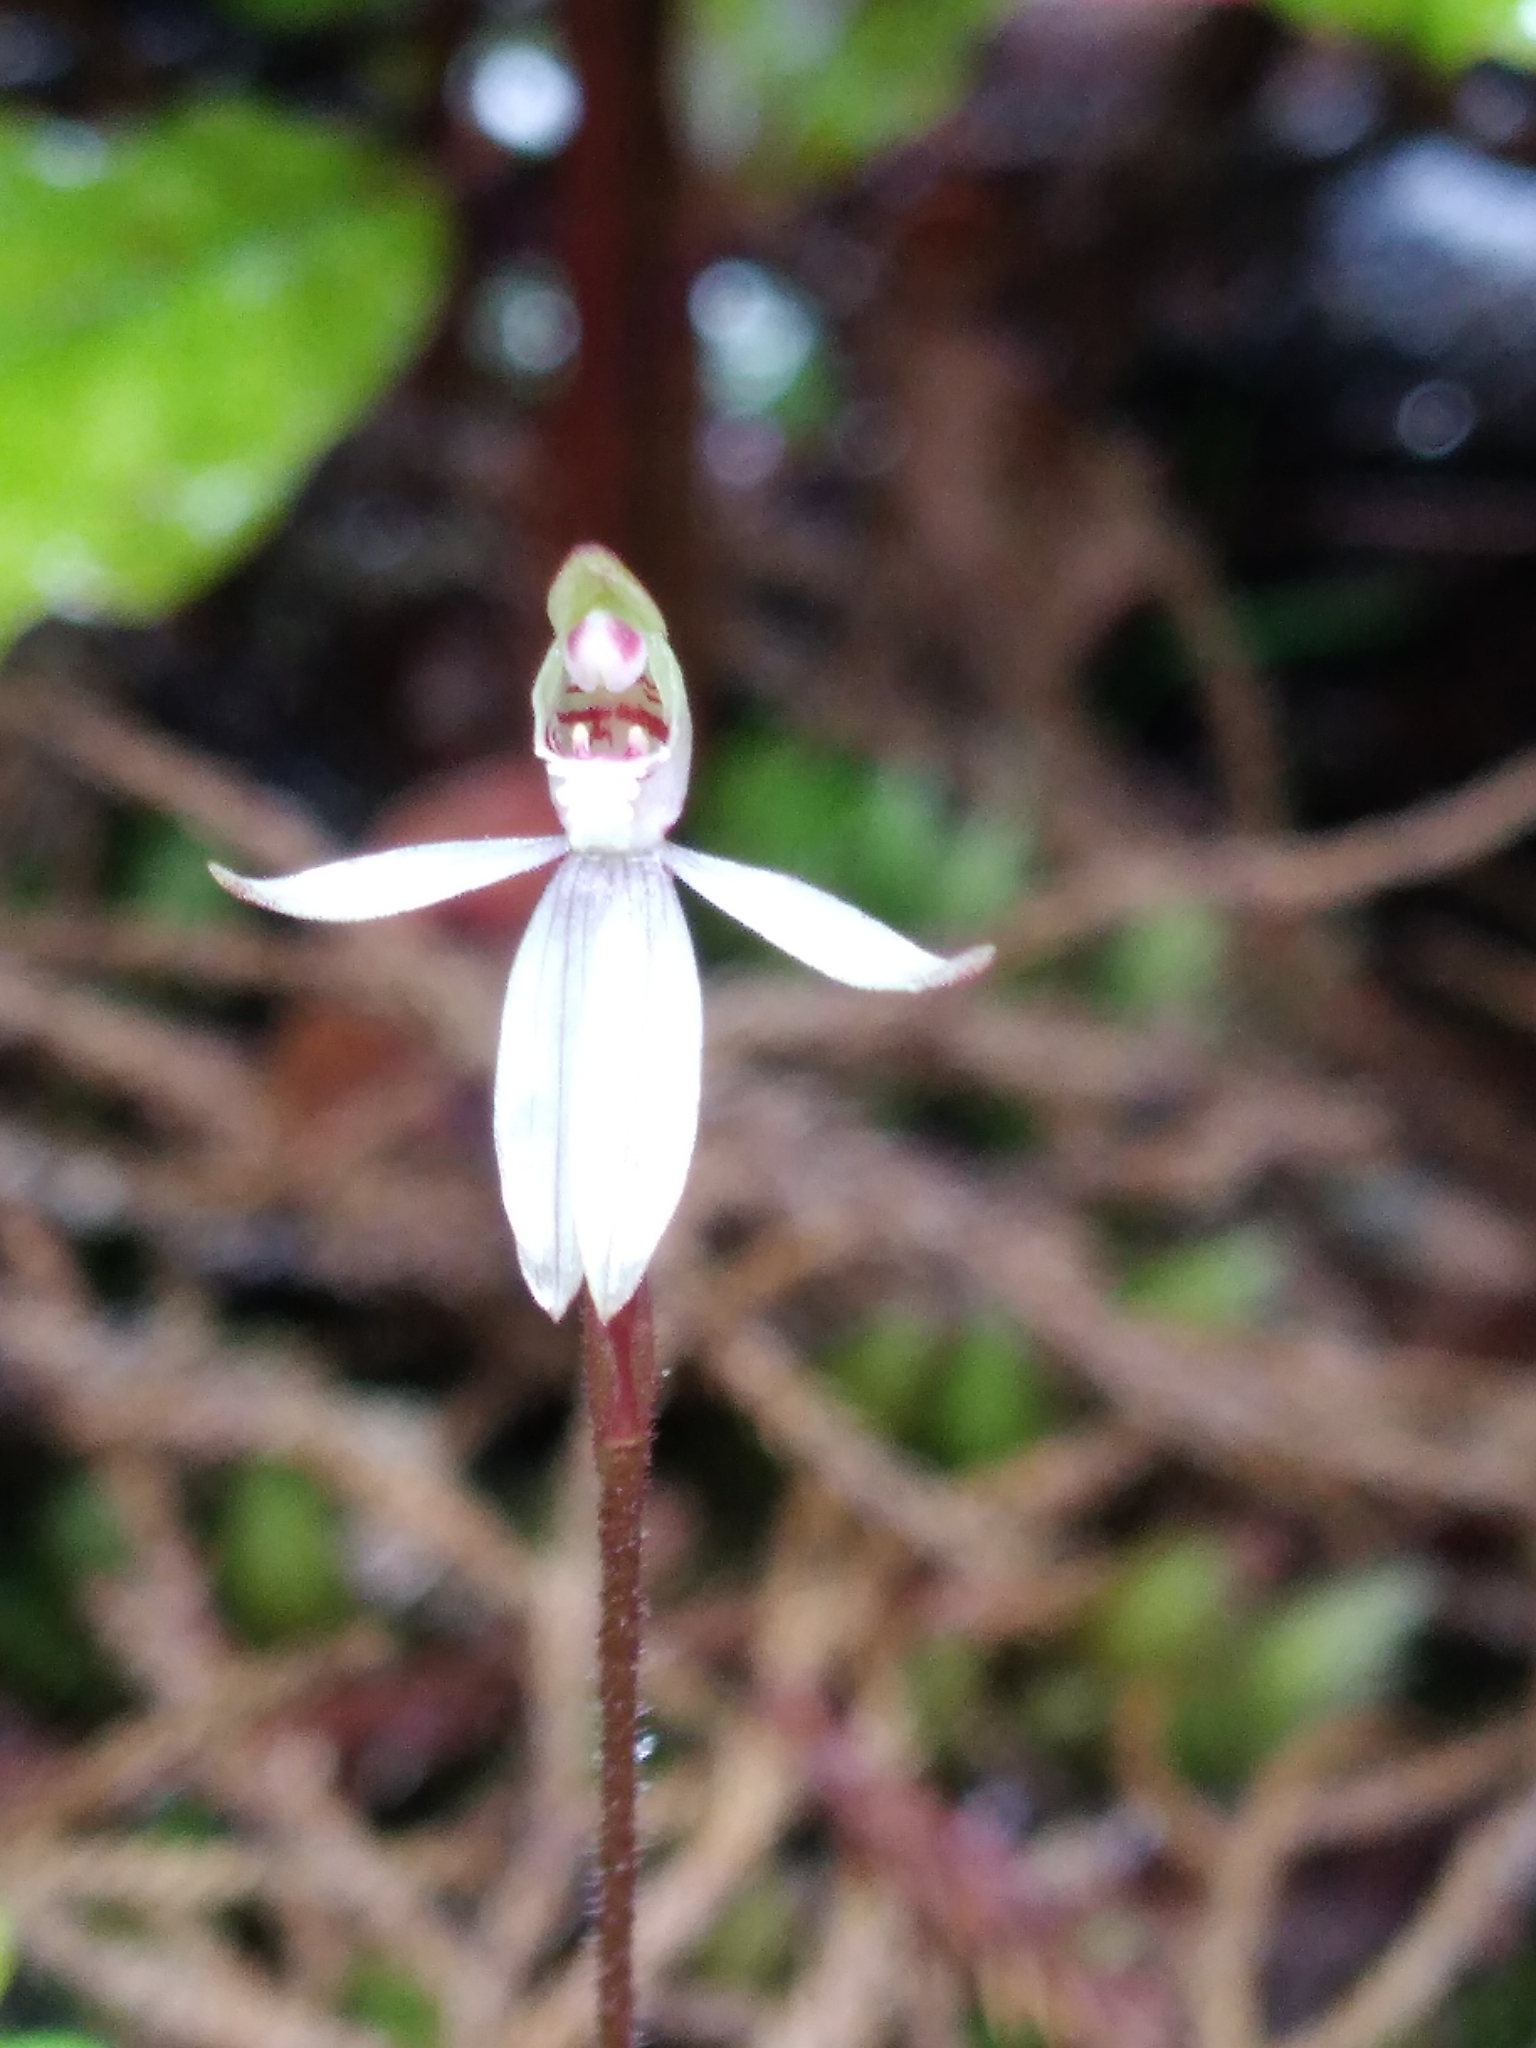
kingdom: Plantae
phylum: Tracheophyta
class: Liliopsida
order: Asparagales
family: Orchidaceae
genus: Caladenia
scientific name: Caladenia chlorostyla
